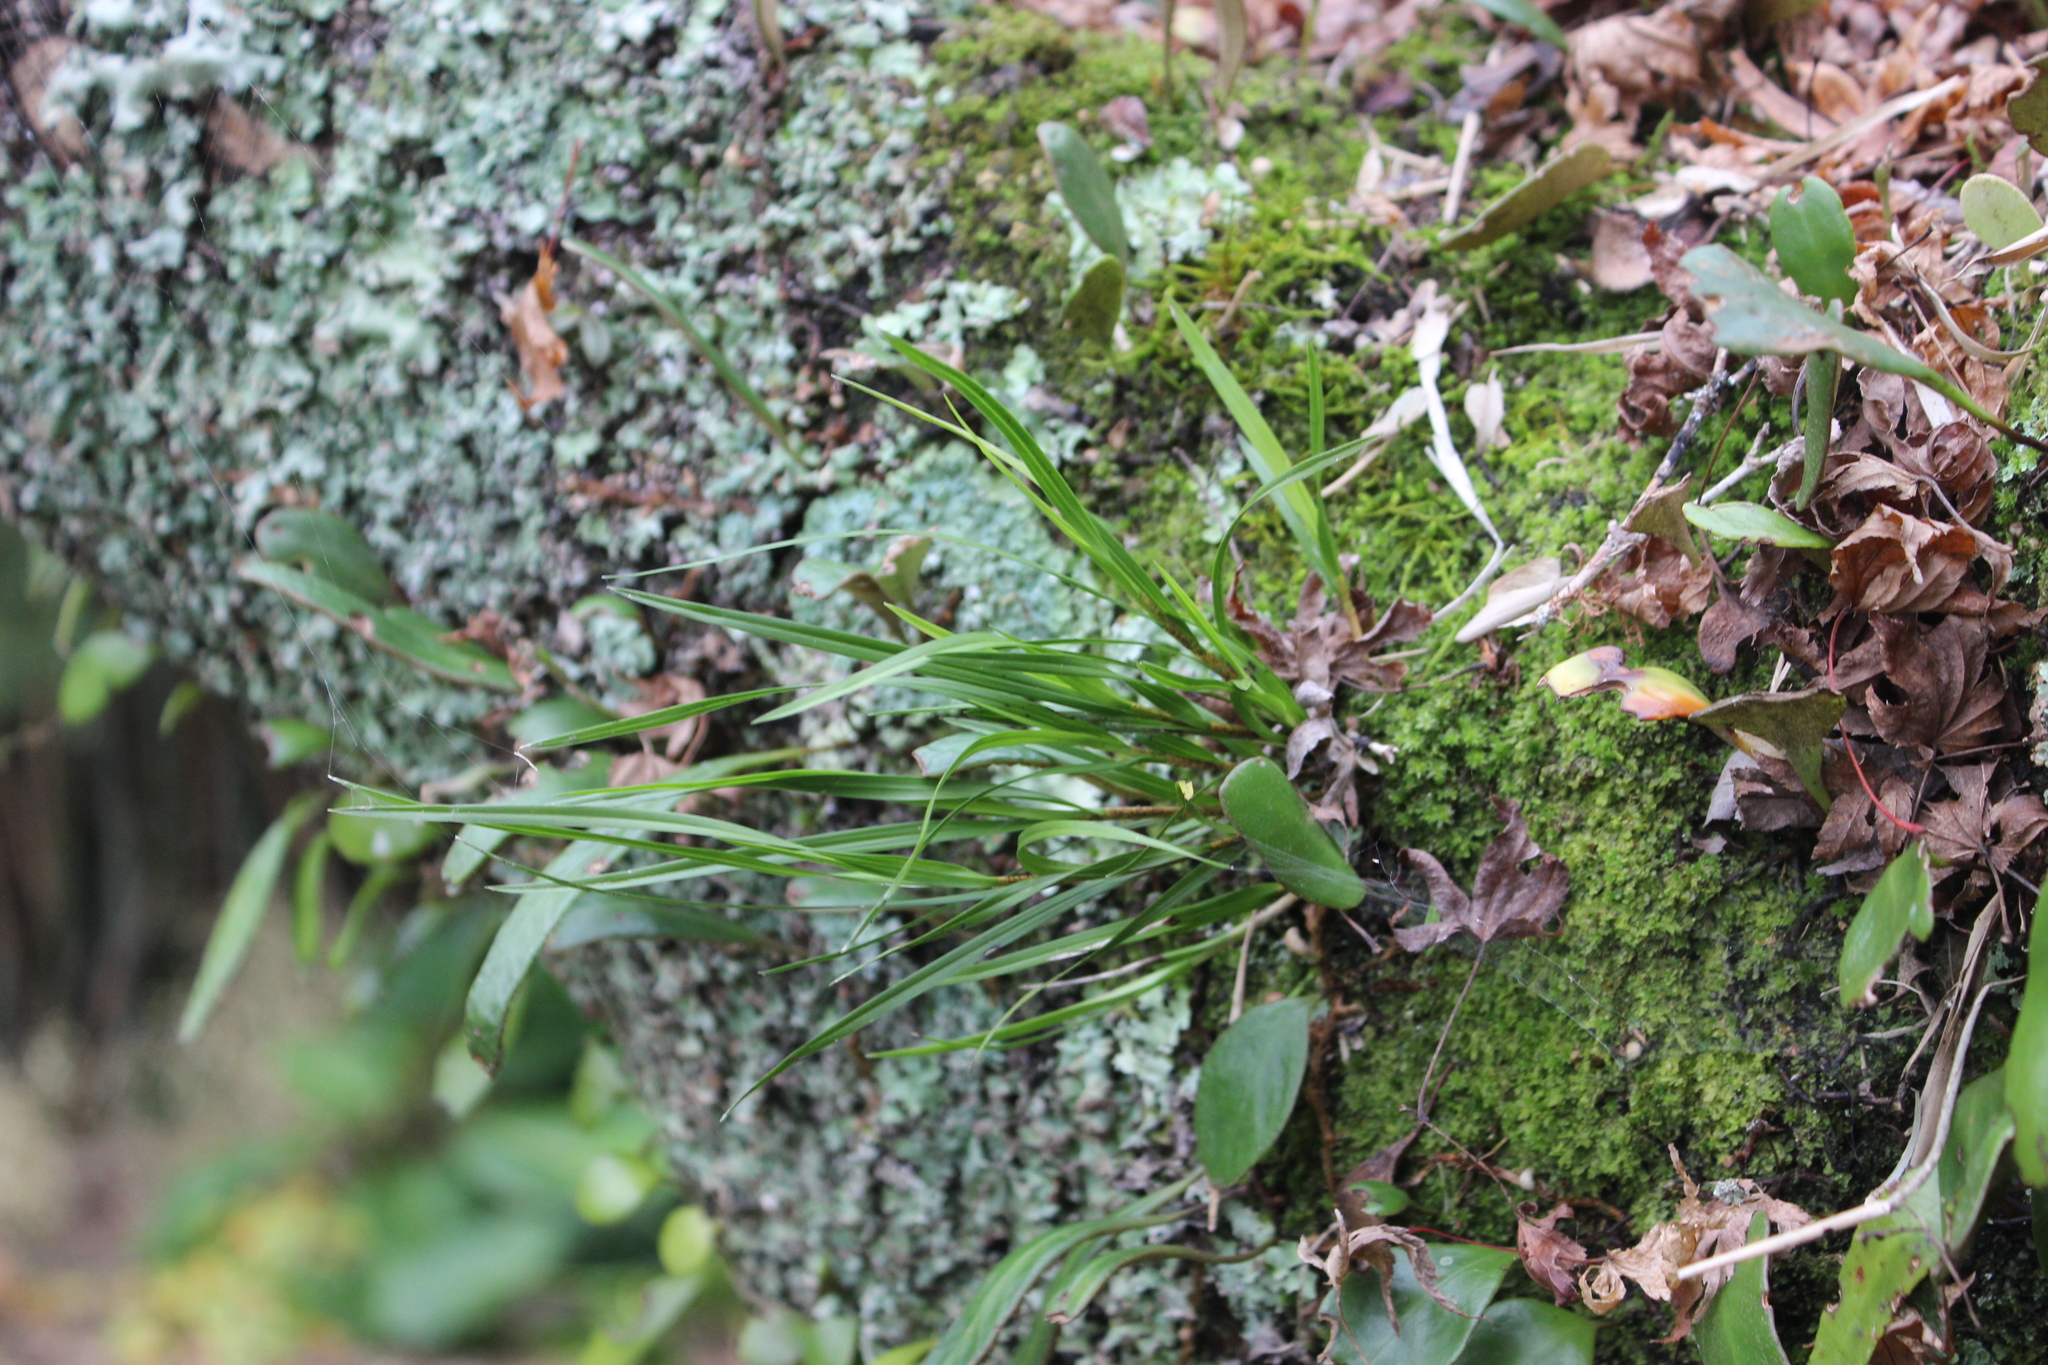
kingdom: Plantae
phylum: Tracheophyta
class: Liliopsida
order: Asparagales
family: Orchidaceae
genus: Earina
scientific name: Earina mucronata
